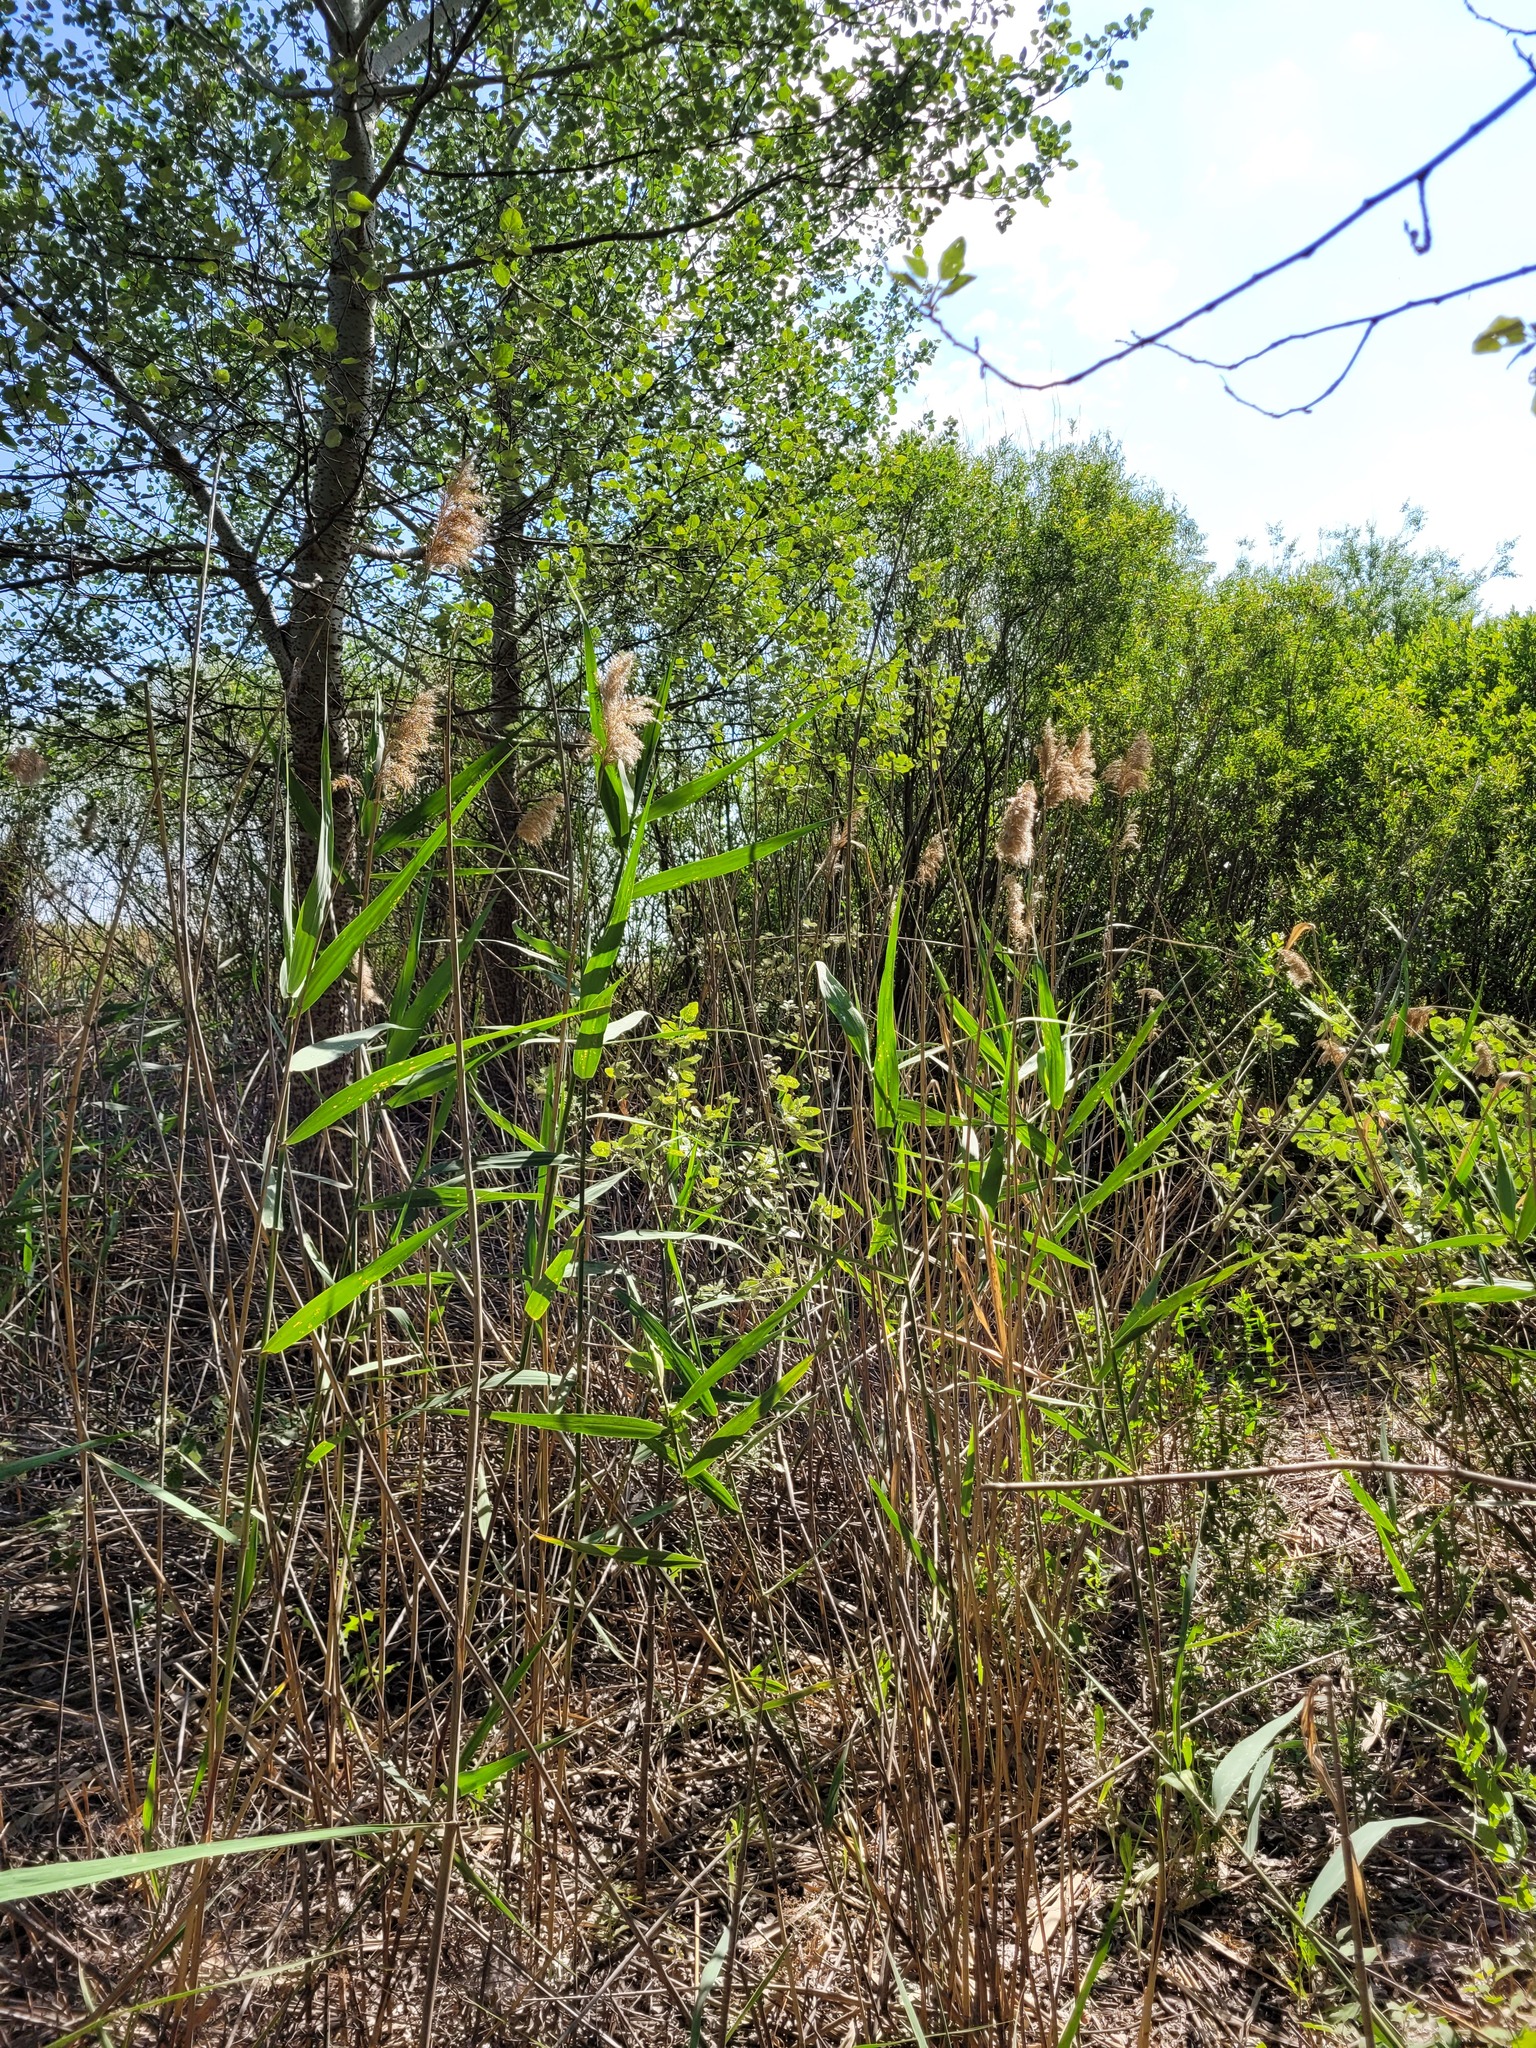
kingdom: Plantae
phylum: Tracheophyta
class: Liliopsida
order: Poales
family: Poaceae
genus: Phragmites
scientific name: Phragmites australis
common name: Common reed
